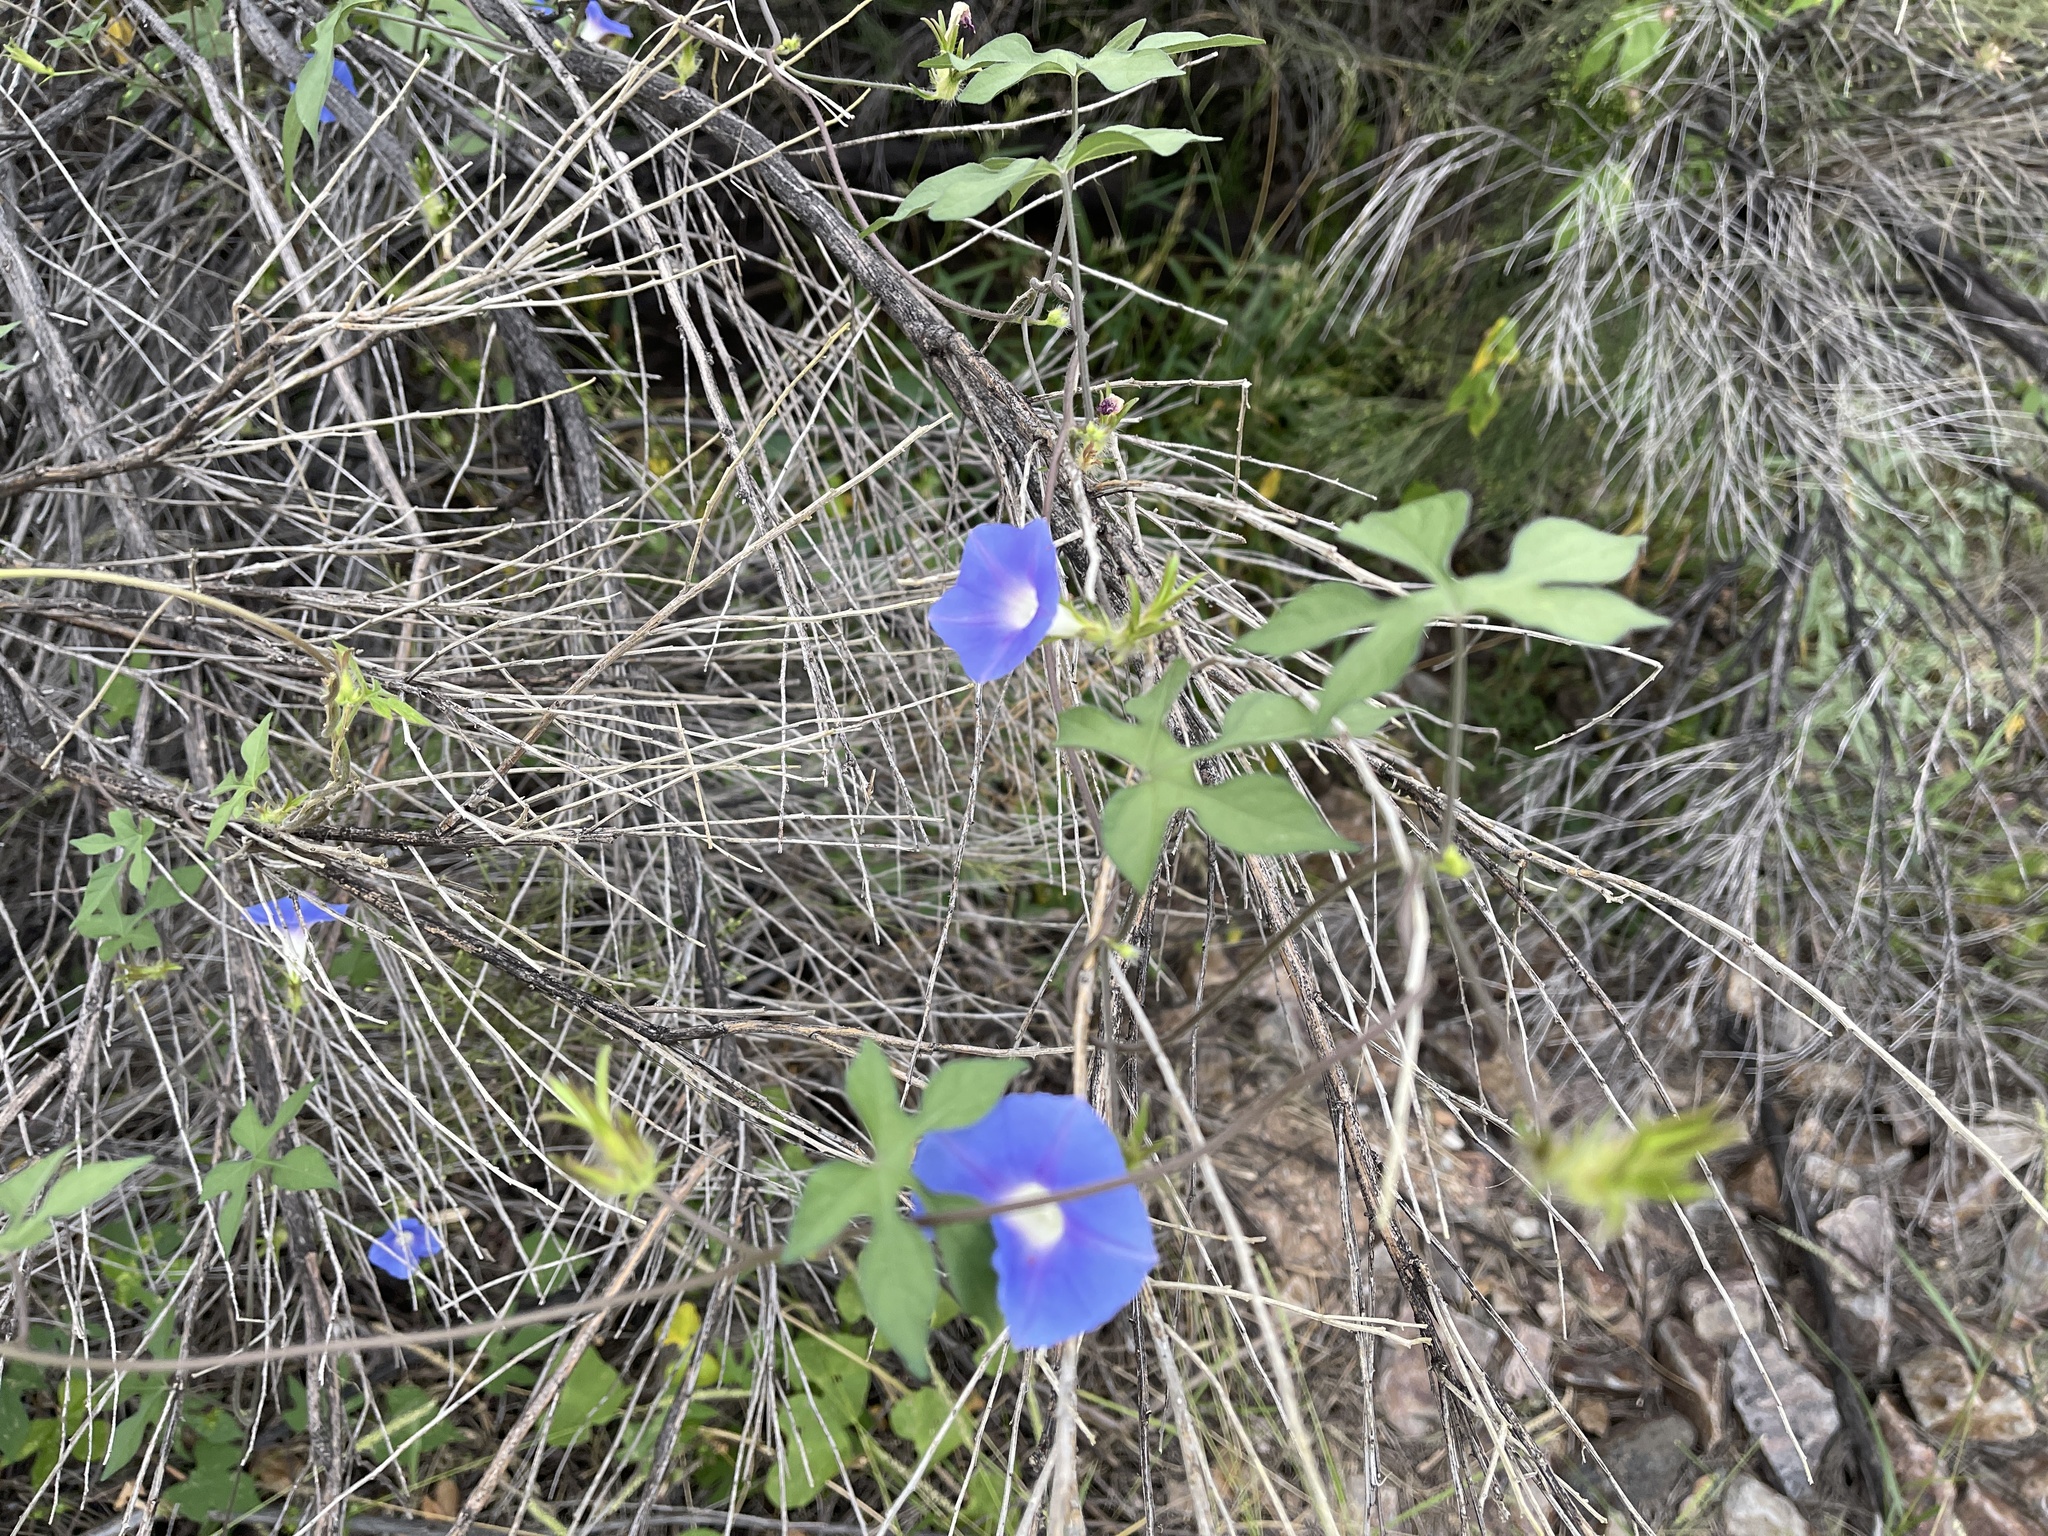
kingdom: Plantae
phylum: Tracheophyta
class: Magnoliopsida
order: Solanales
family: Convolvulaceae
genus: Ipomoea
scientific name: Ipomoea hederacea
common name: Ivy-leaved morning-glory
